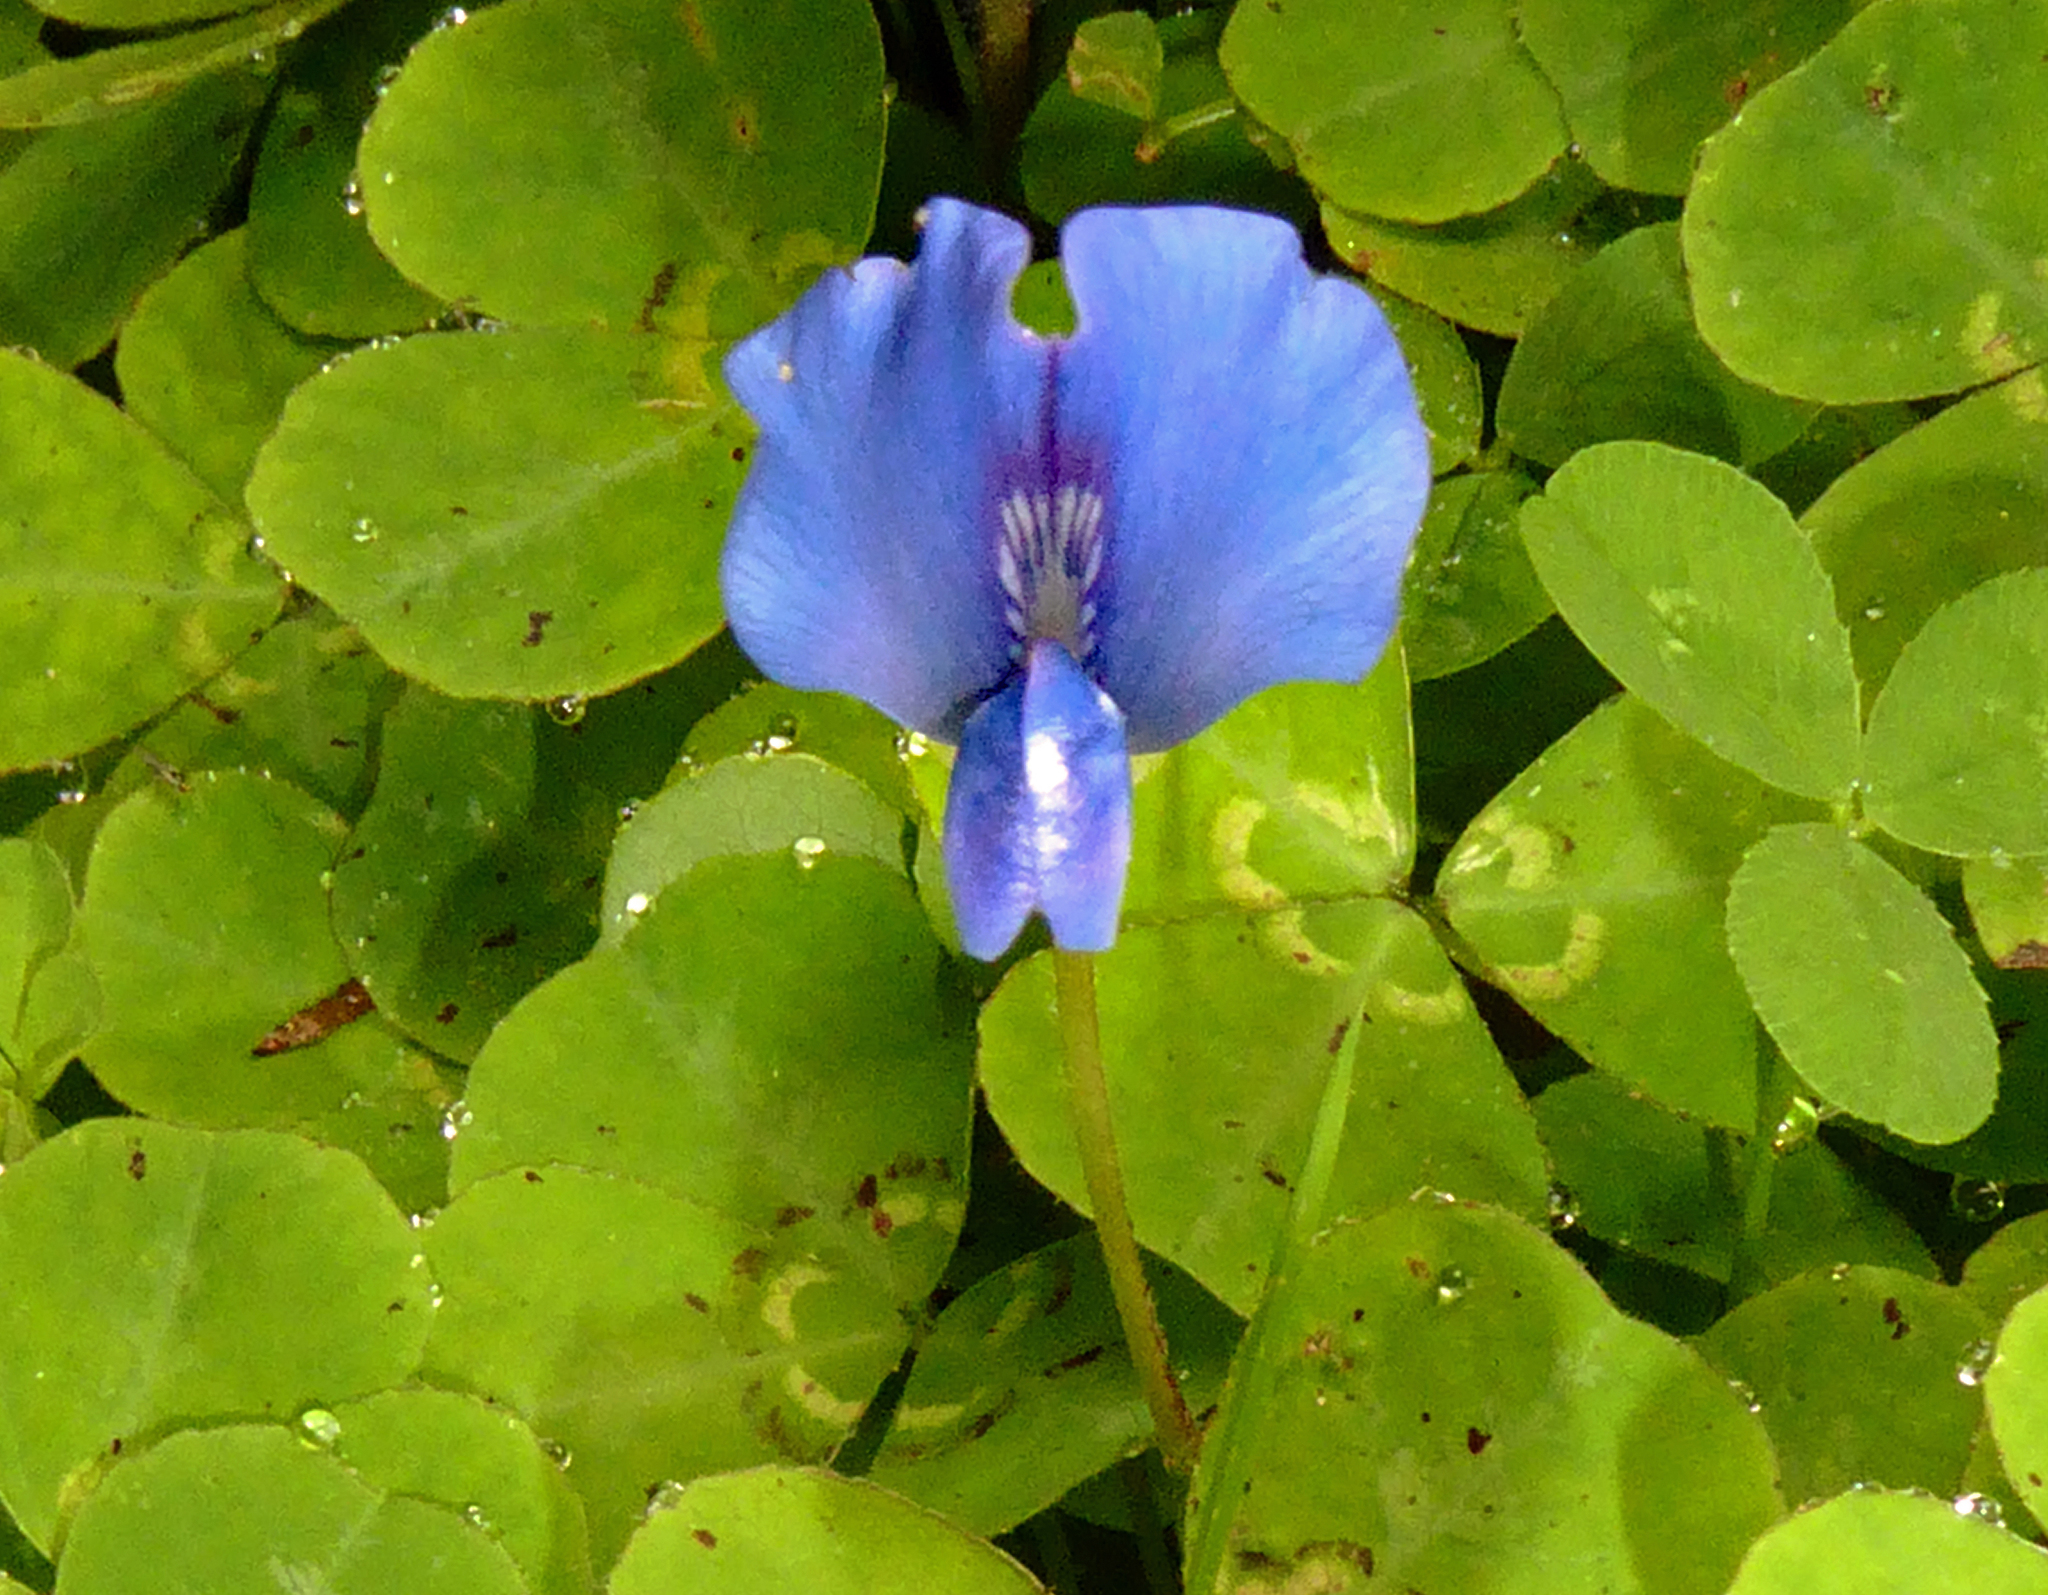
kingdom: Plantae
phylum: Tracheophyta
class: Magnoliopsida
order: Fabales
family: Fabaceae
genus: Parochetus
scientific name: Parochetus communis
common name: Blue oxalis
